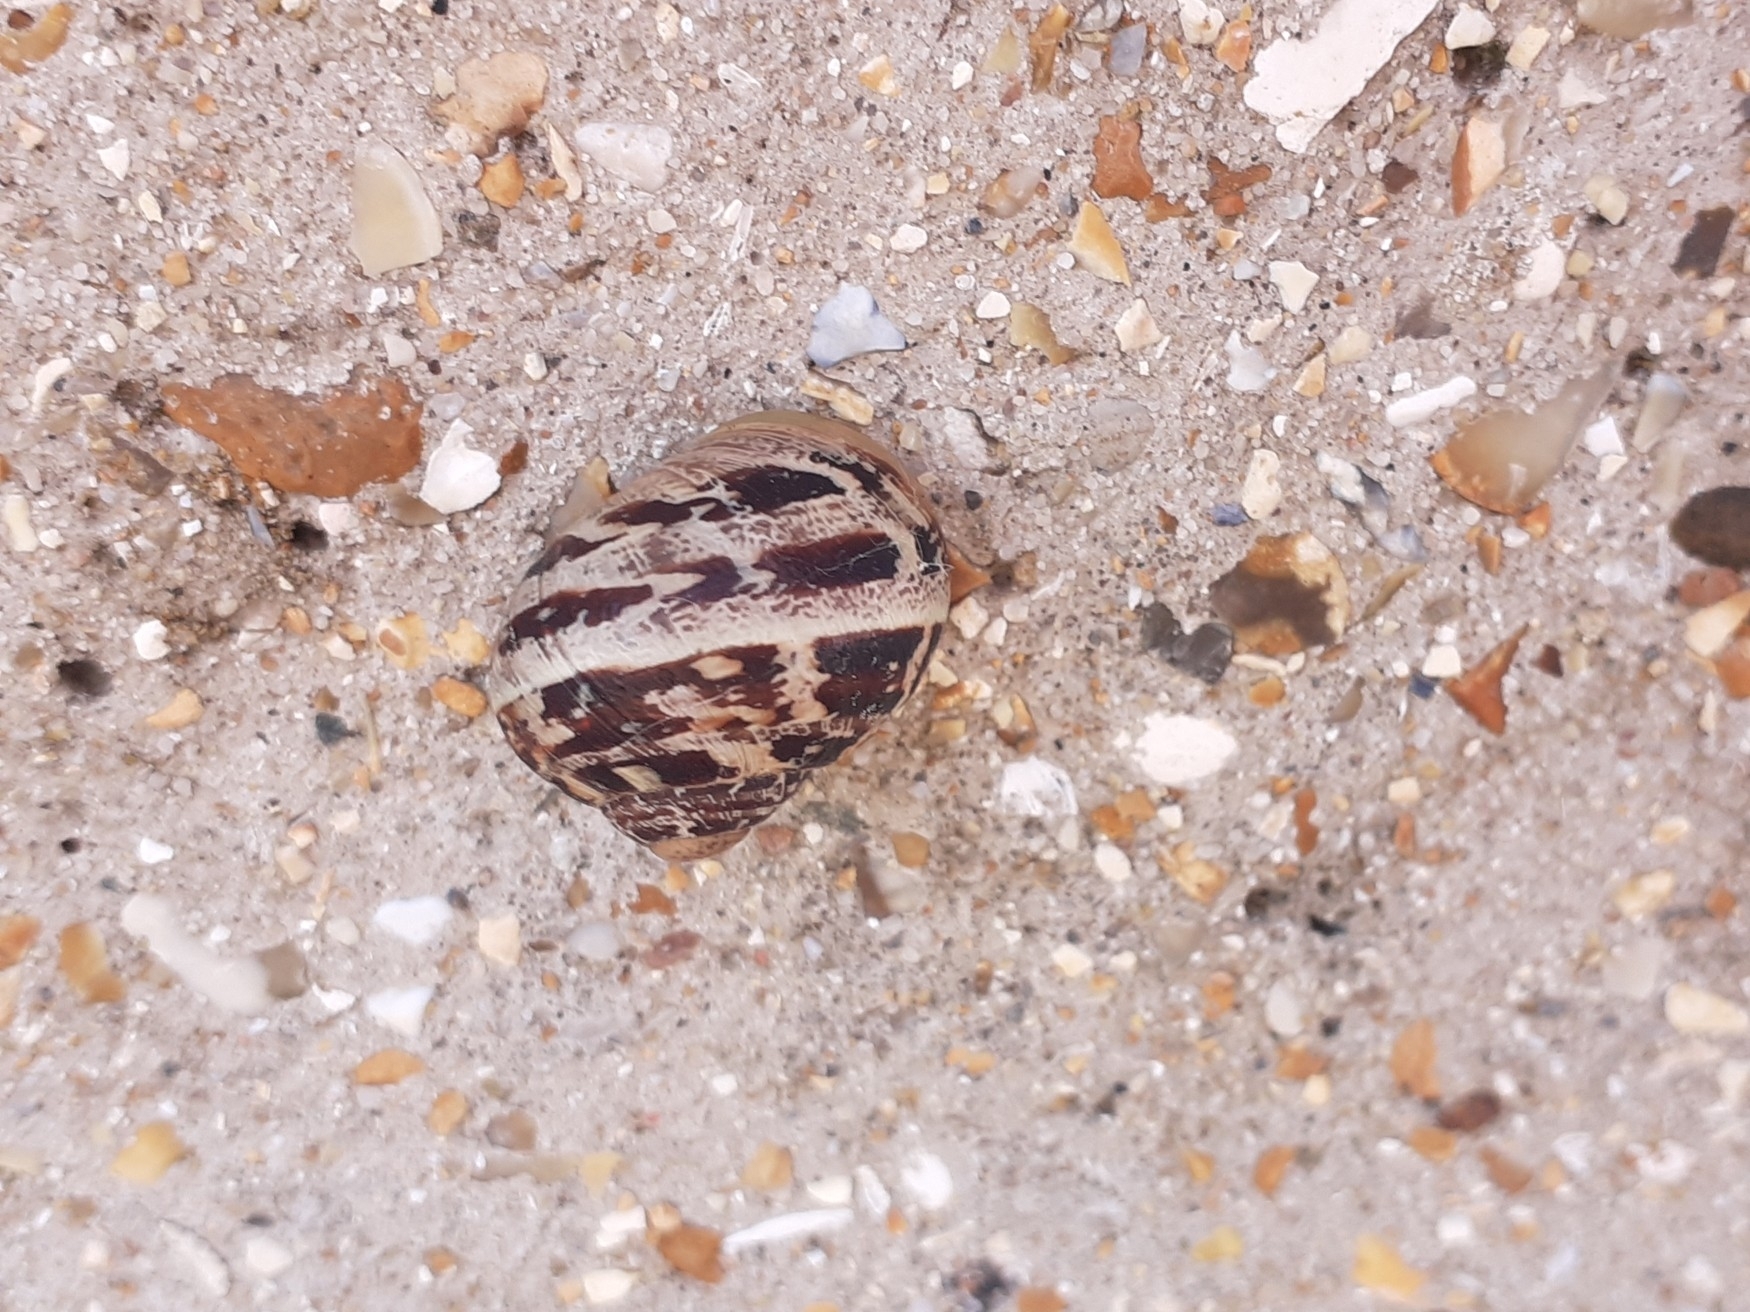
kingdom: Animalia
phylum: Mollusca
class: Gastropoda
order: Stylommatophora
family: Helicidae
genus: Cornu
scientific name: Cornu aspersum
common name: Brown garden snail
